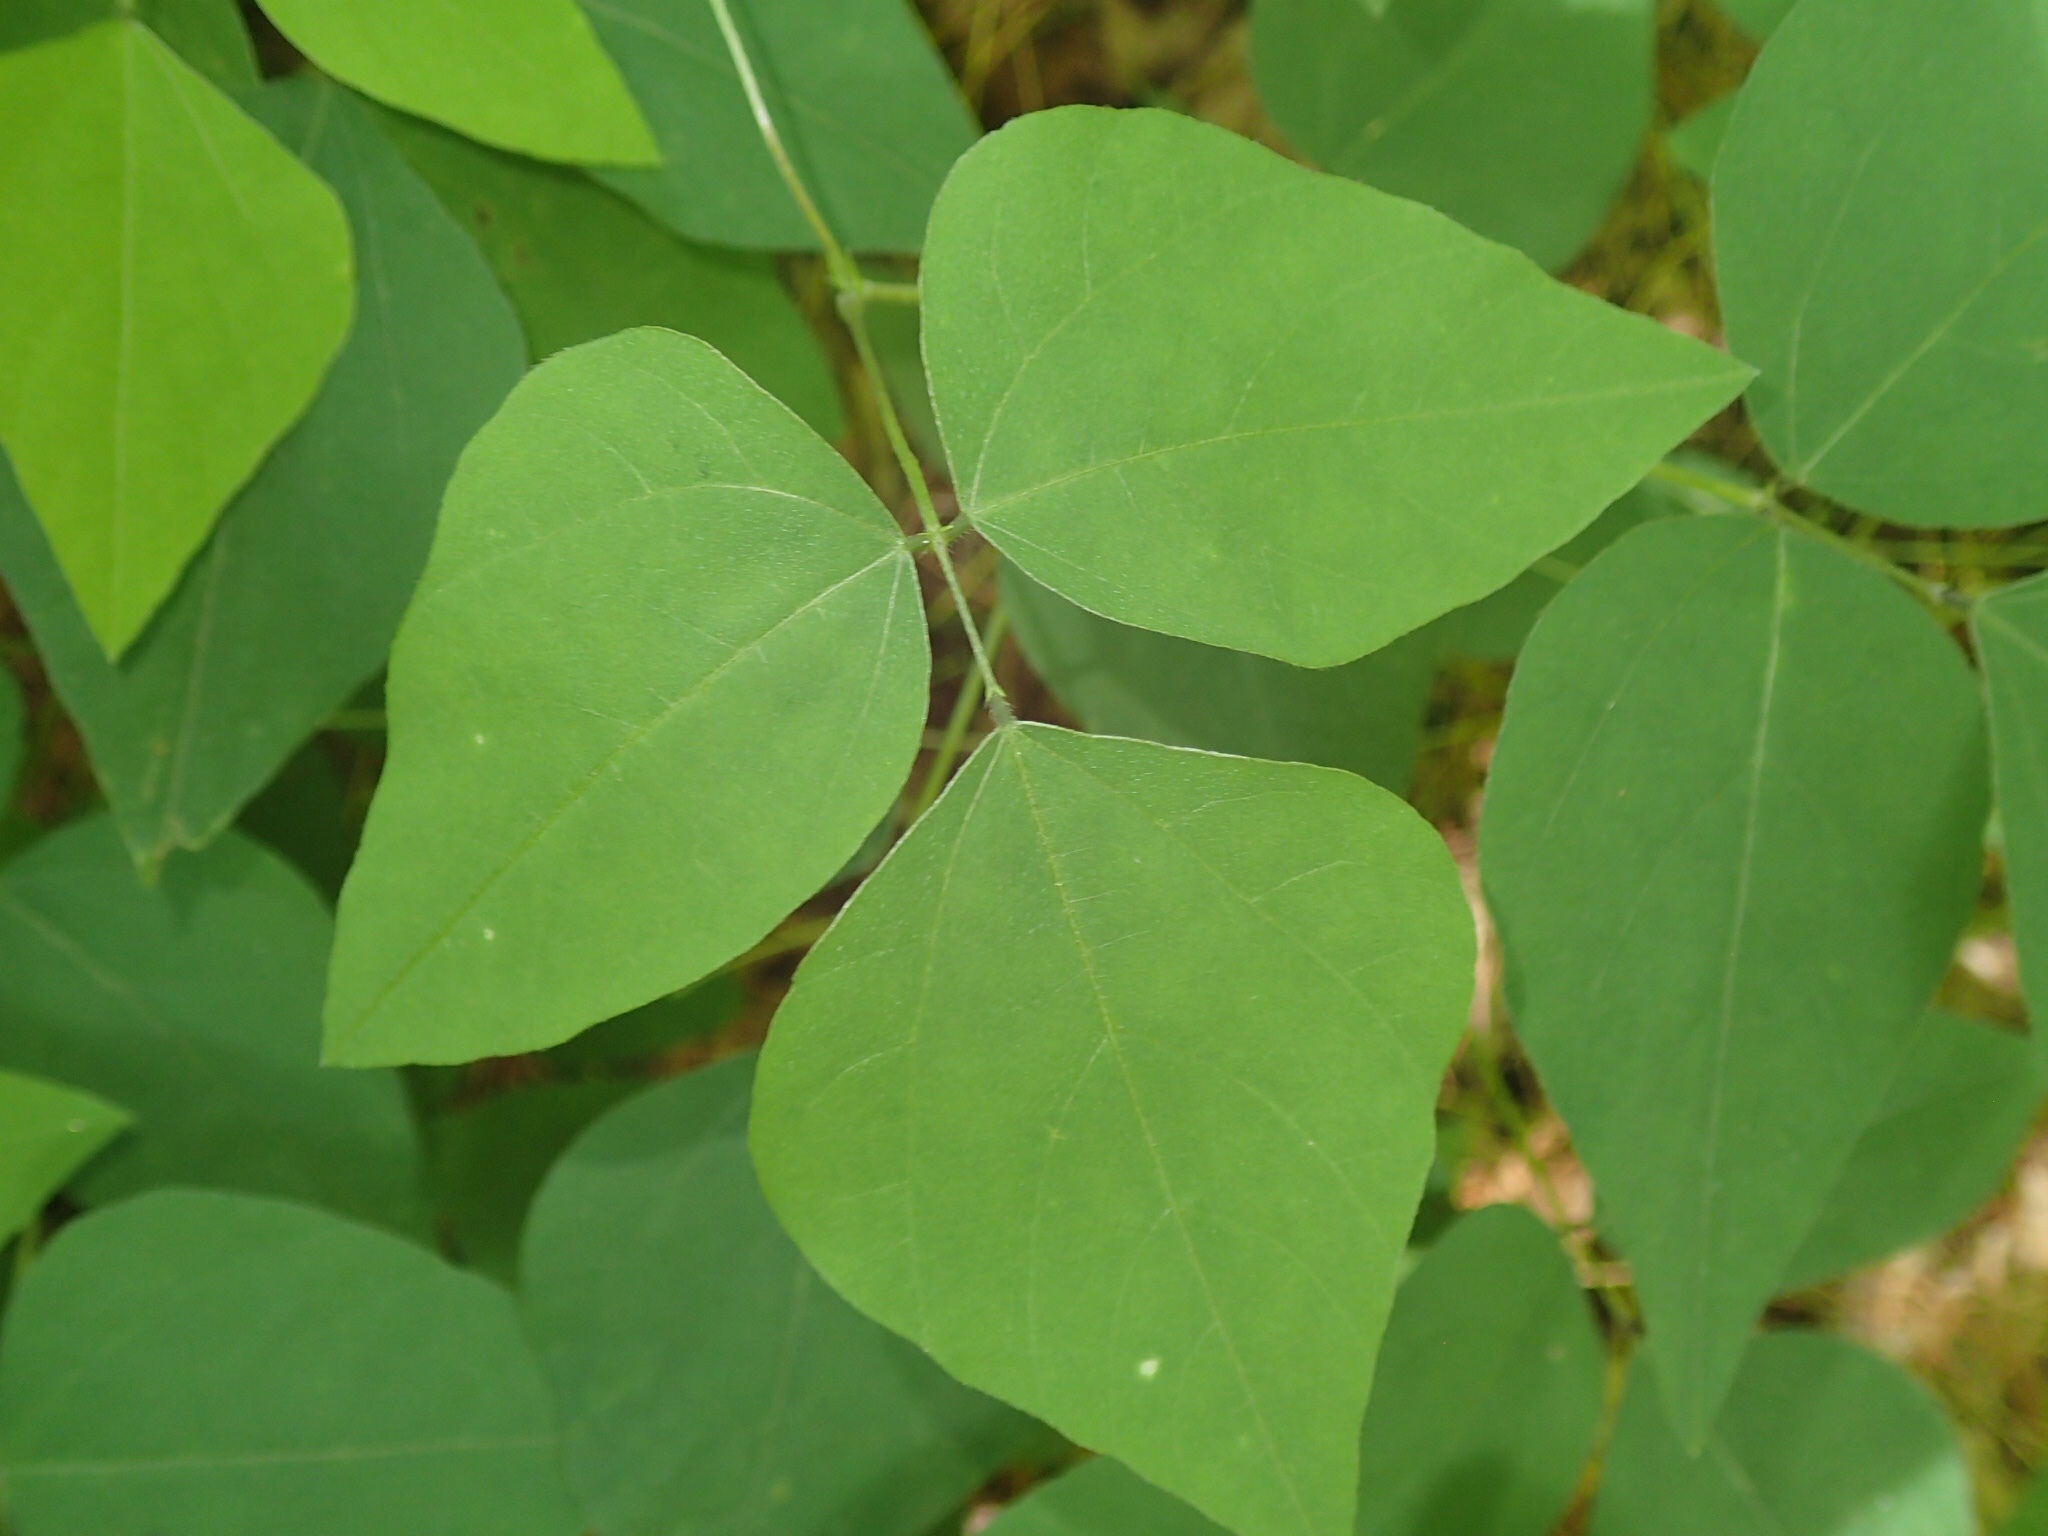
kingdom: Plantae
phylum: Tracheophyta
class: Magnoliopsida
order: Fabales
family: Fabaceae
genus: Amphicarpaea
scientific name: Amphicarpaea bracteata
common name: American hog peanut
